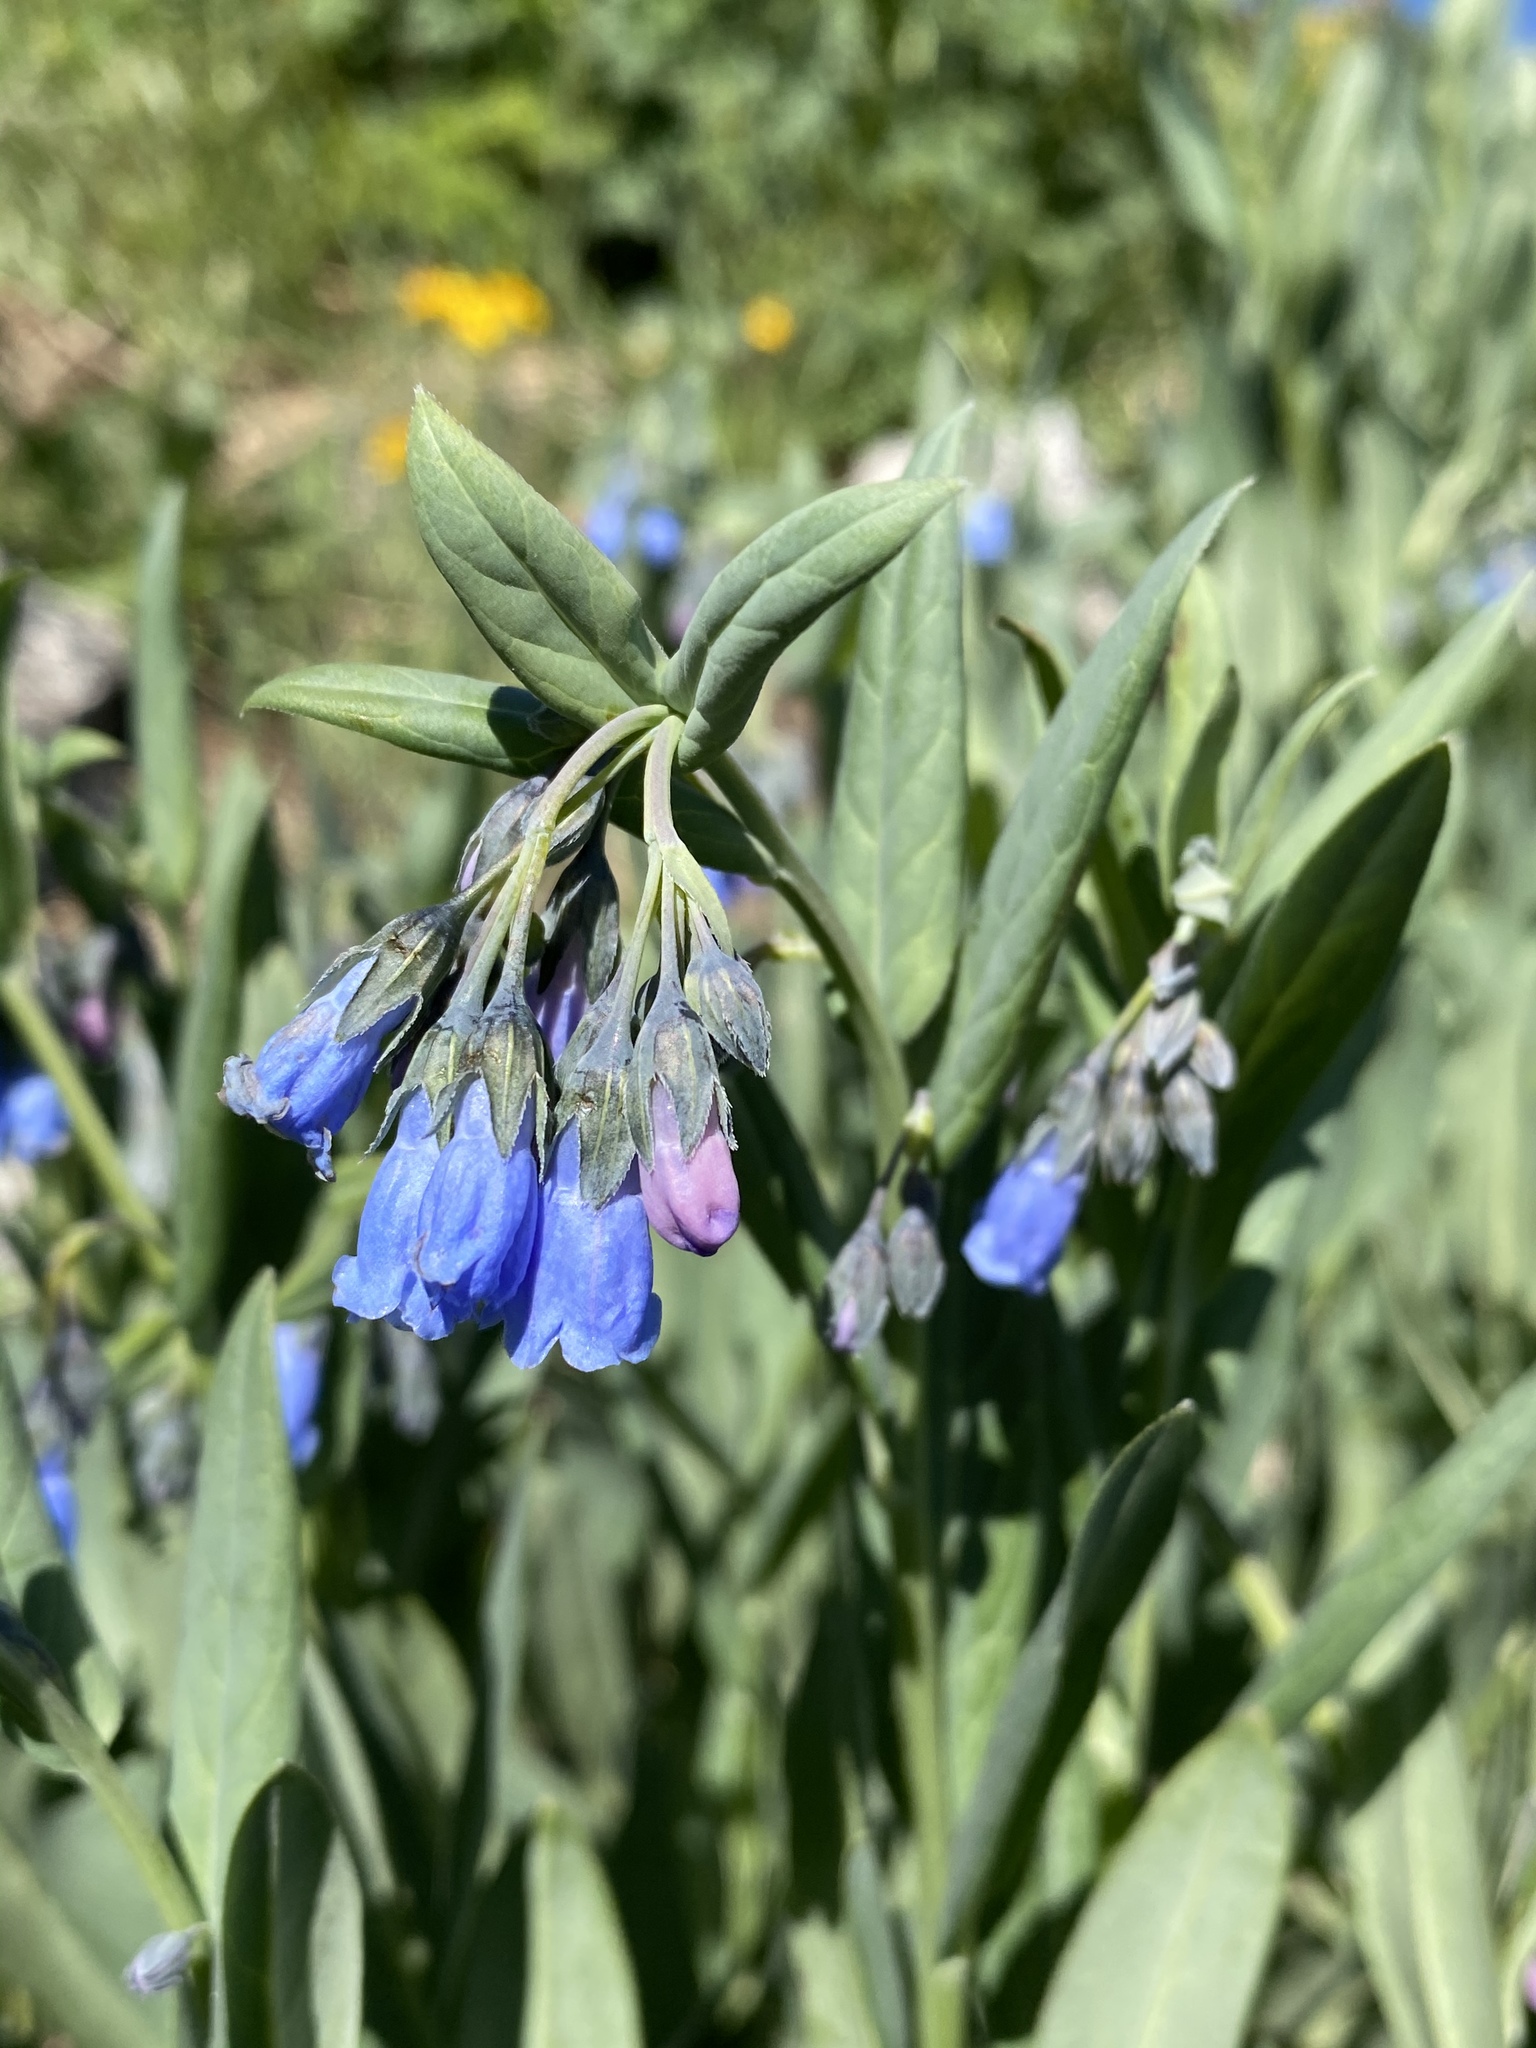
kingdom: Plantae
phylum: Tracheophyta
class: Magnoliopsida
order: Boraginales
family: Boraginaceae
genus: Mertensia
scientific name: Mertensia arizonica
